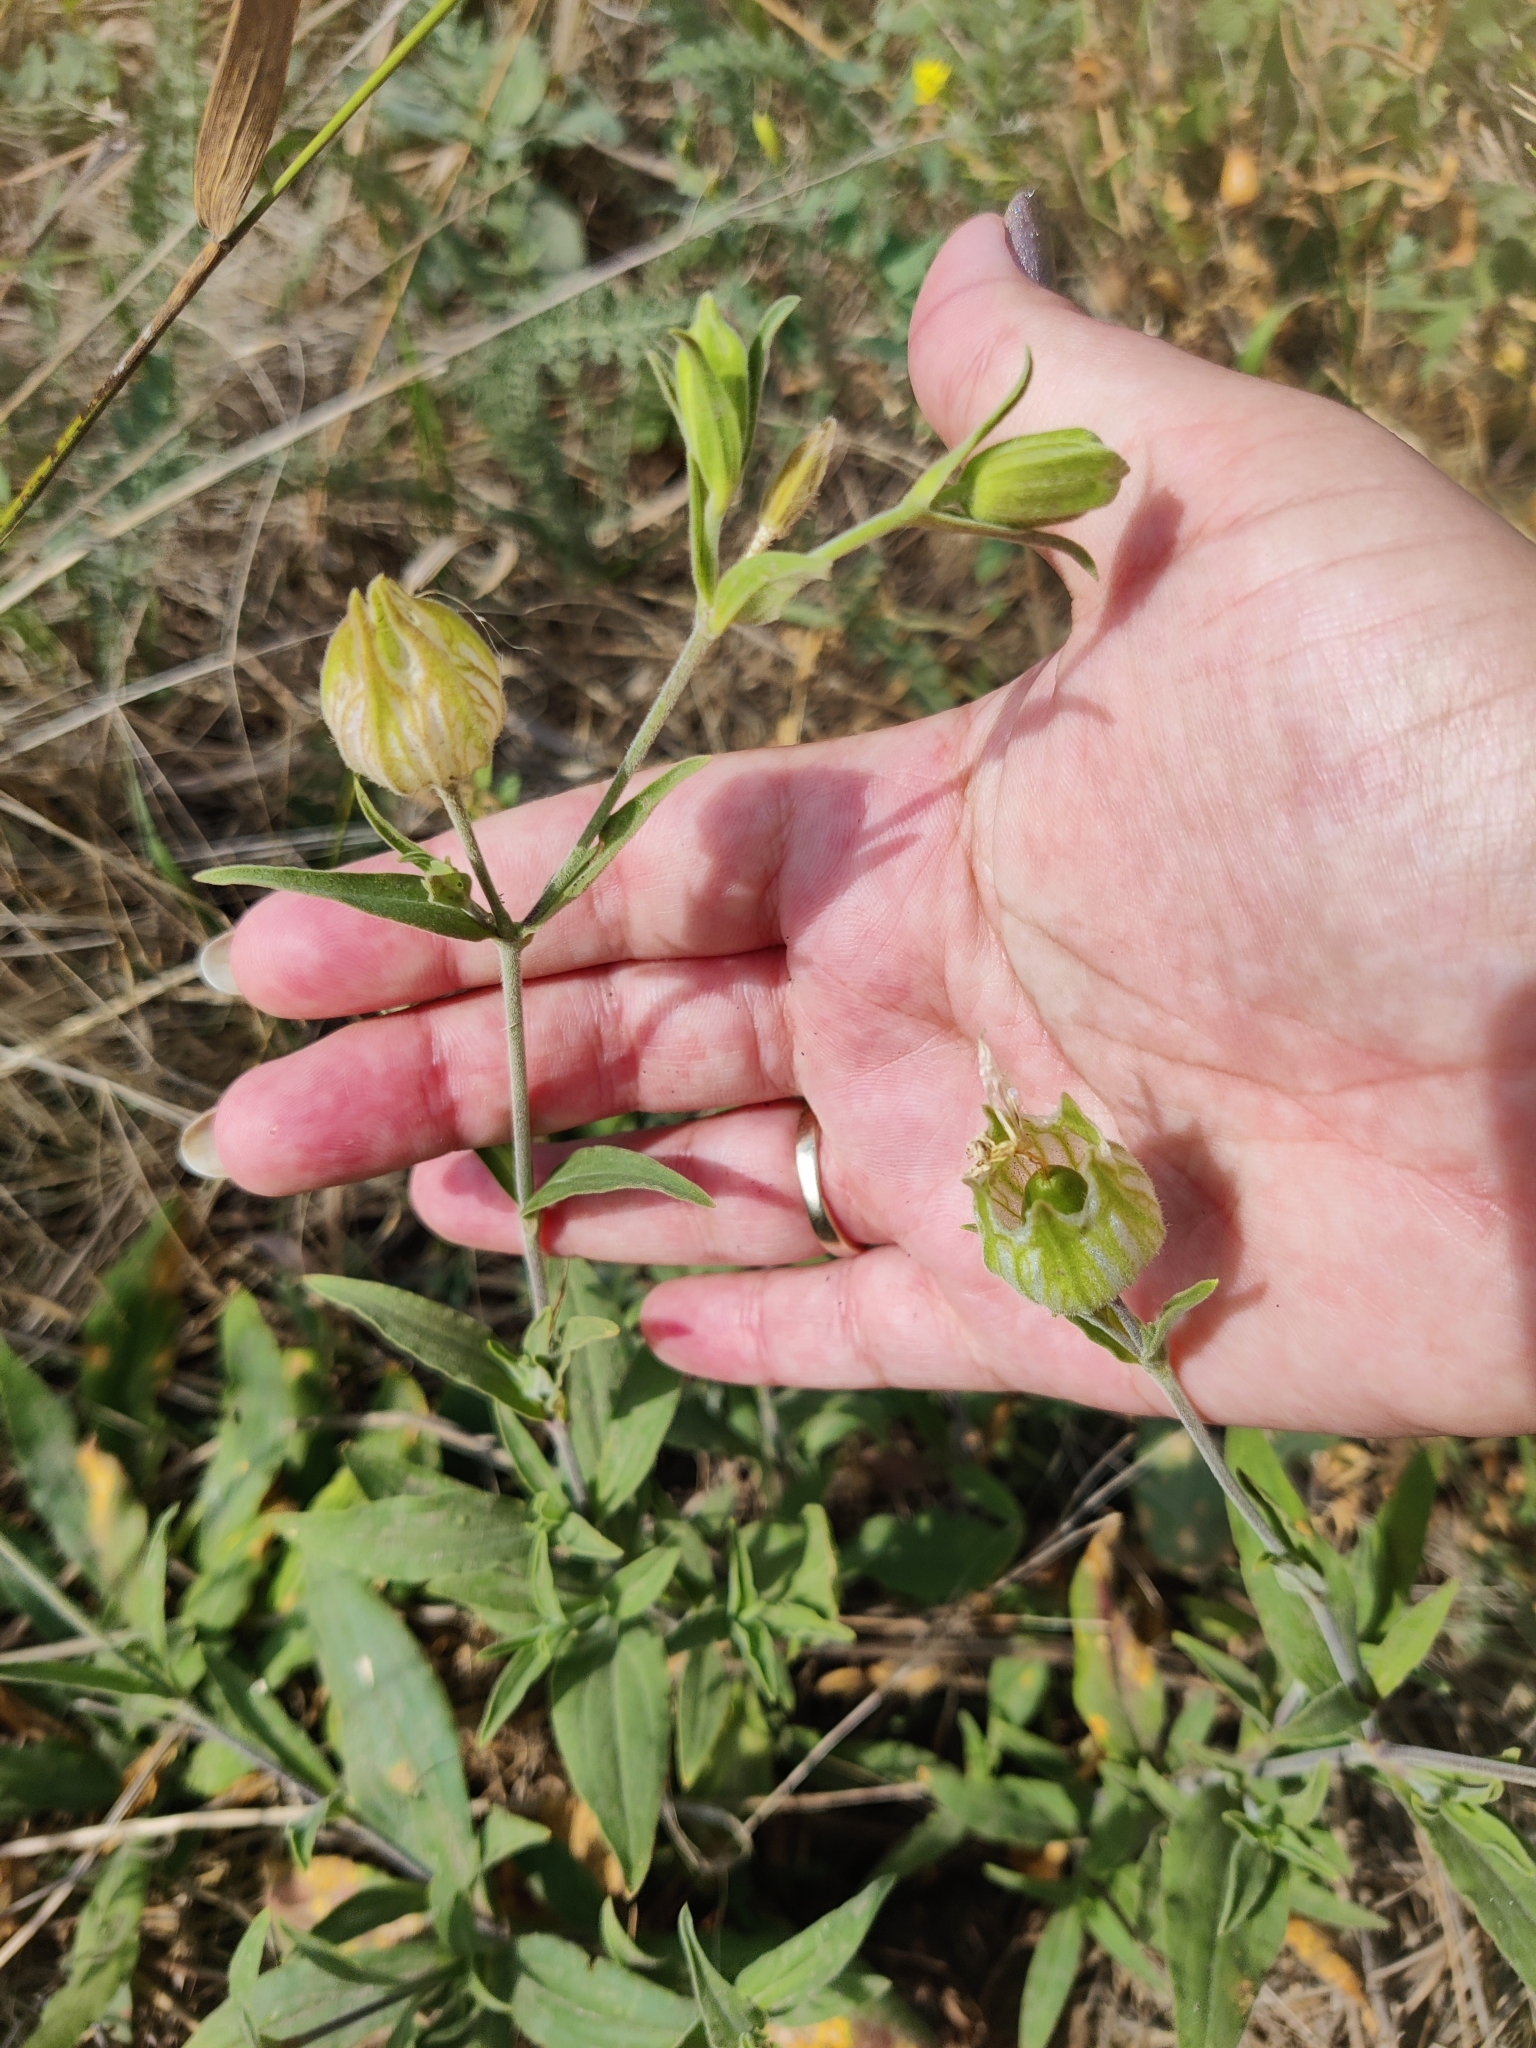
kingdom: Plantae
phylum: Tracheophyta
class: Magnoliopsida
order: Caryophyllales
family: Caryophyllaceae
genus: Silene
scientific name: Silene latifolia
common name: White campion
